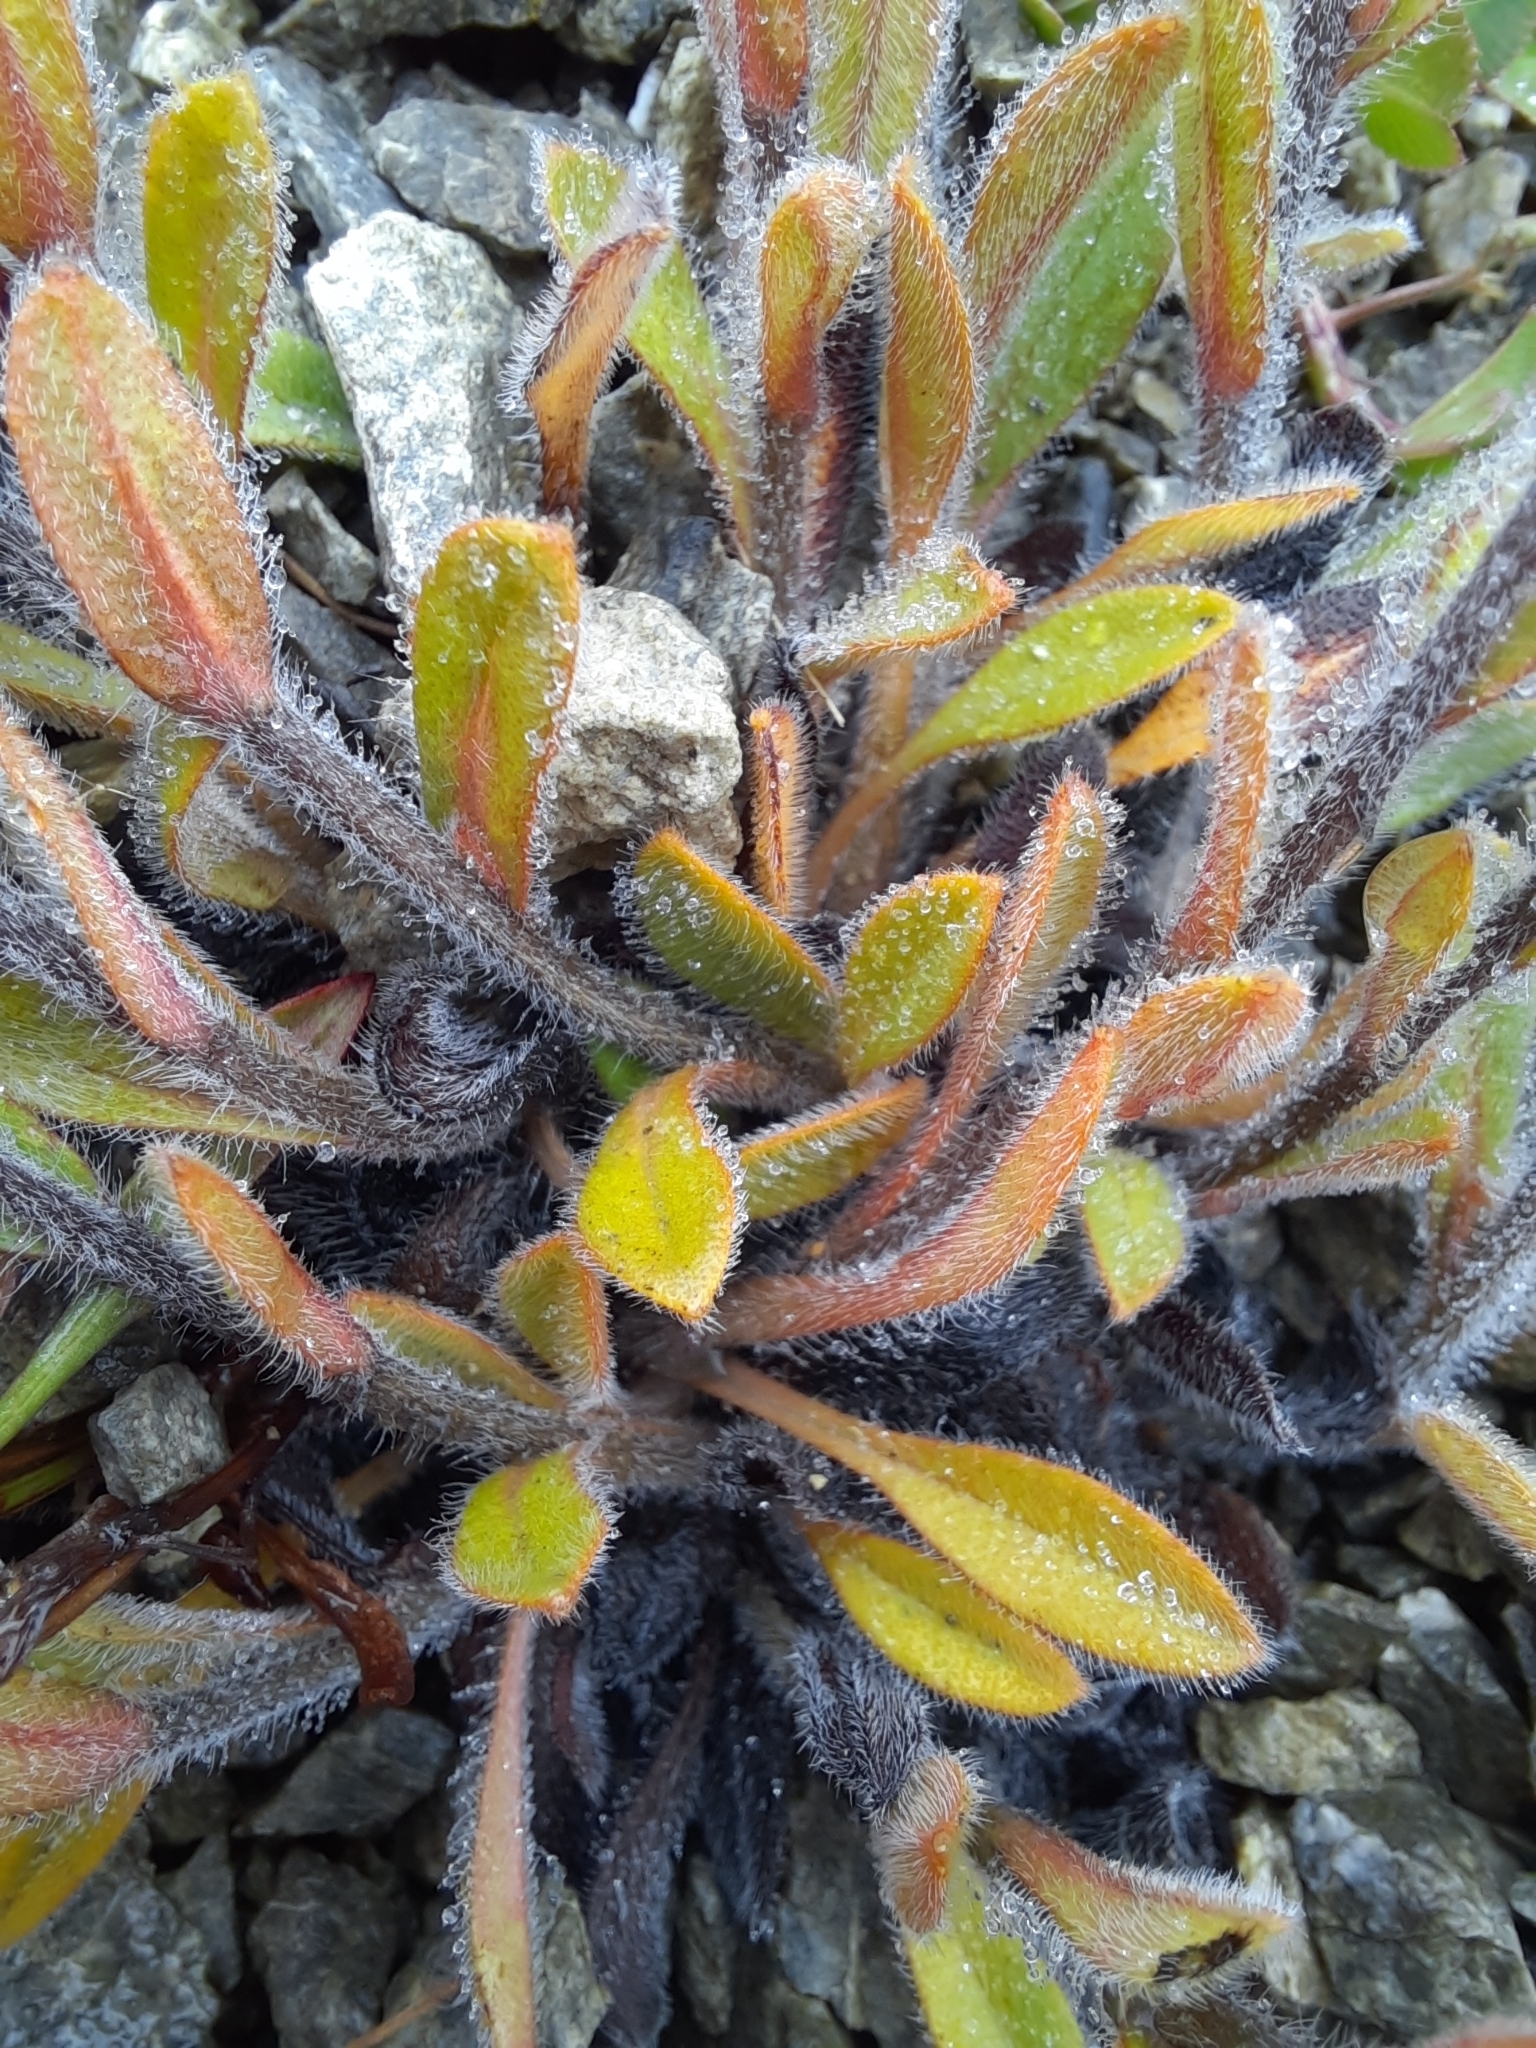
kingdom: Plantae
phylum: Tracheophyta
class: Magnoliopsida
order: Boraginales
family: Boraginaceae
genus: Myosotis
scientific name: Myosotis australis
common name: Australian forget-me-not
